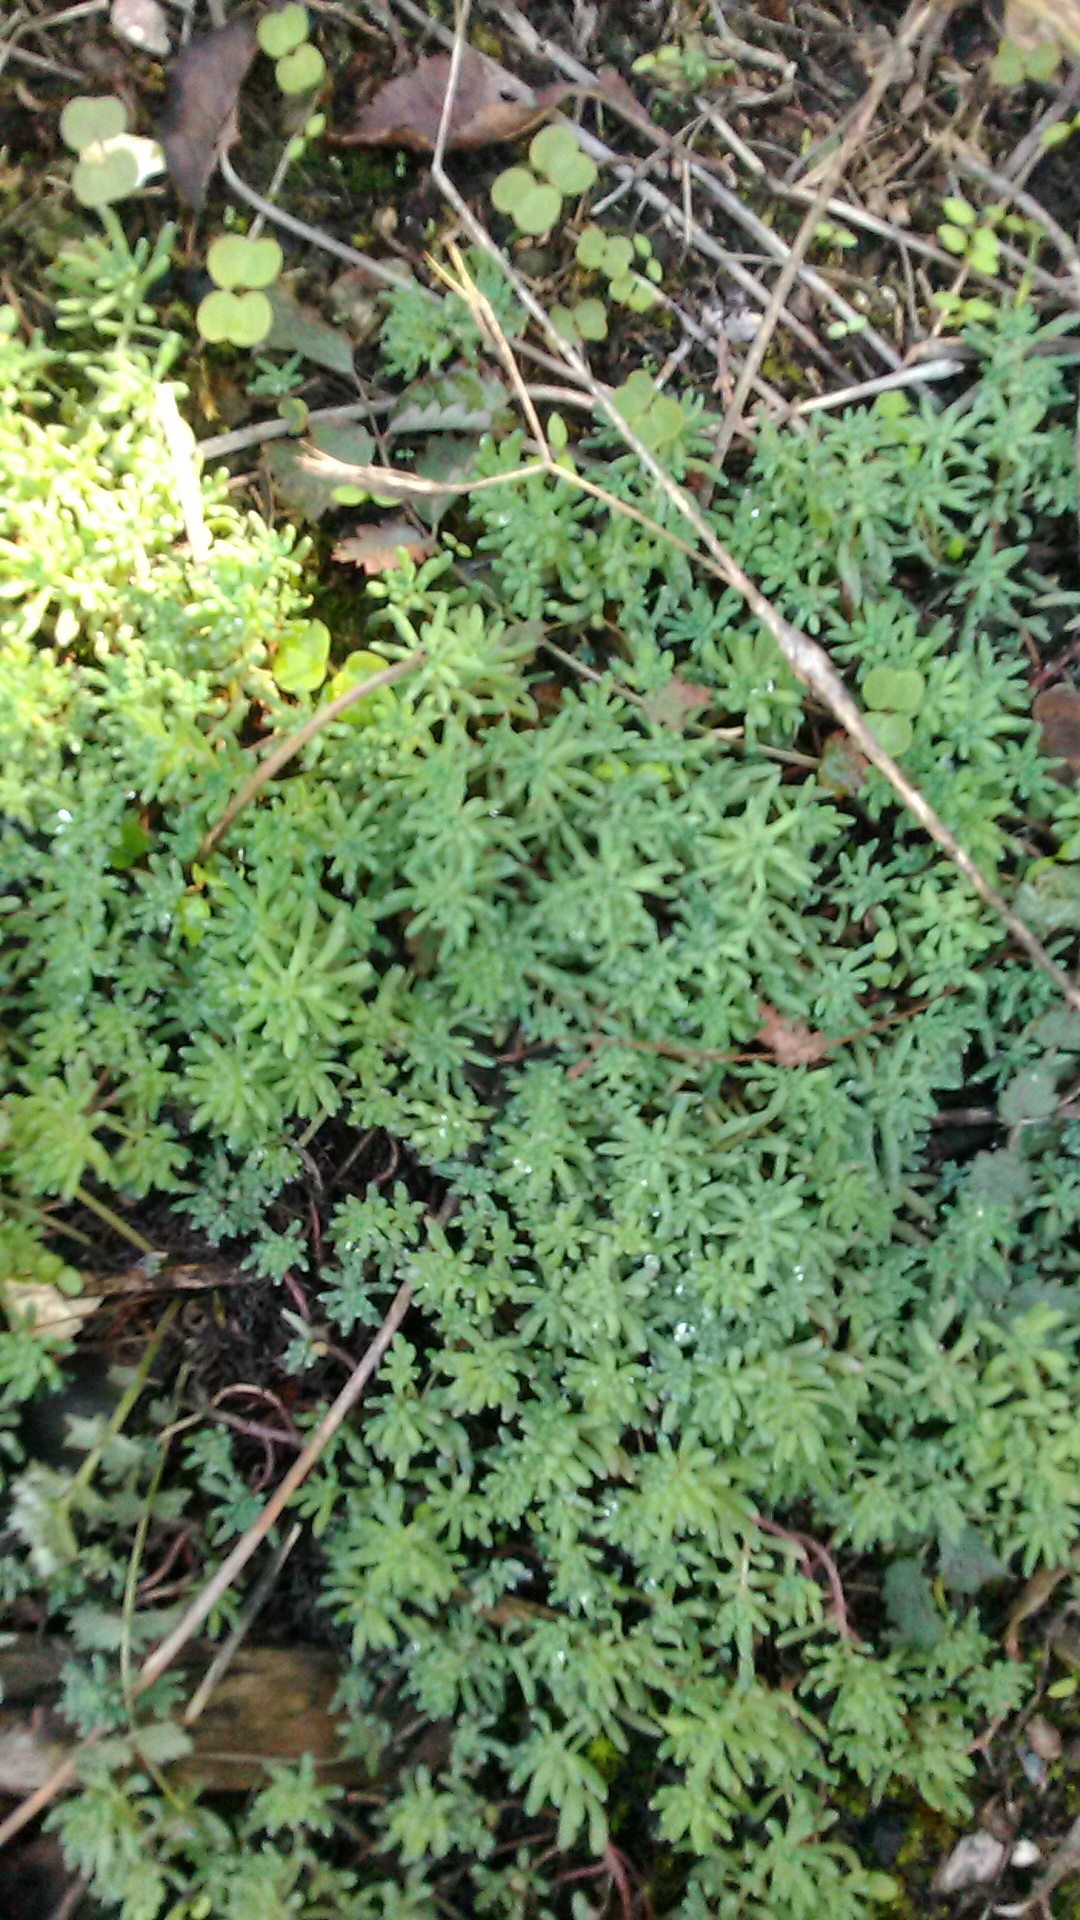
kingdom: Plantae
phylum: Tracheophyta
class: Magnoliopsida
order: Saxifragales
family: Crassulaceae
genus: Sedum
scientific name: Sedum pallidum
